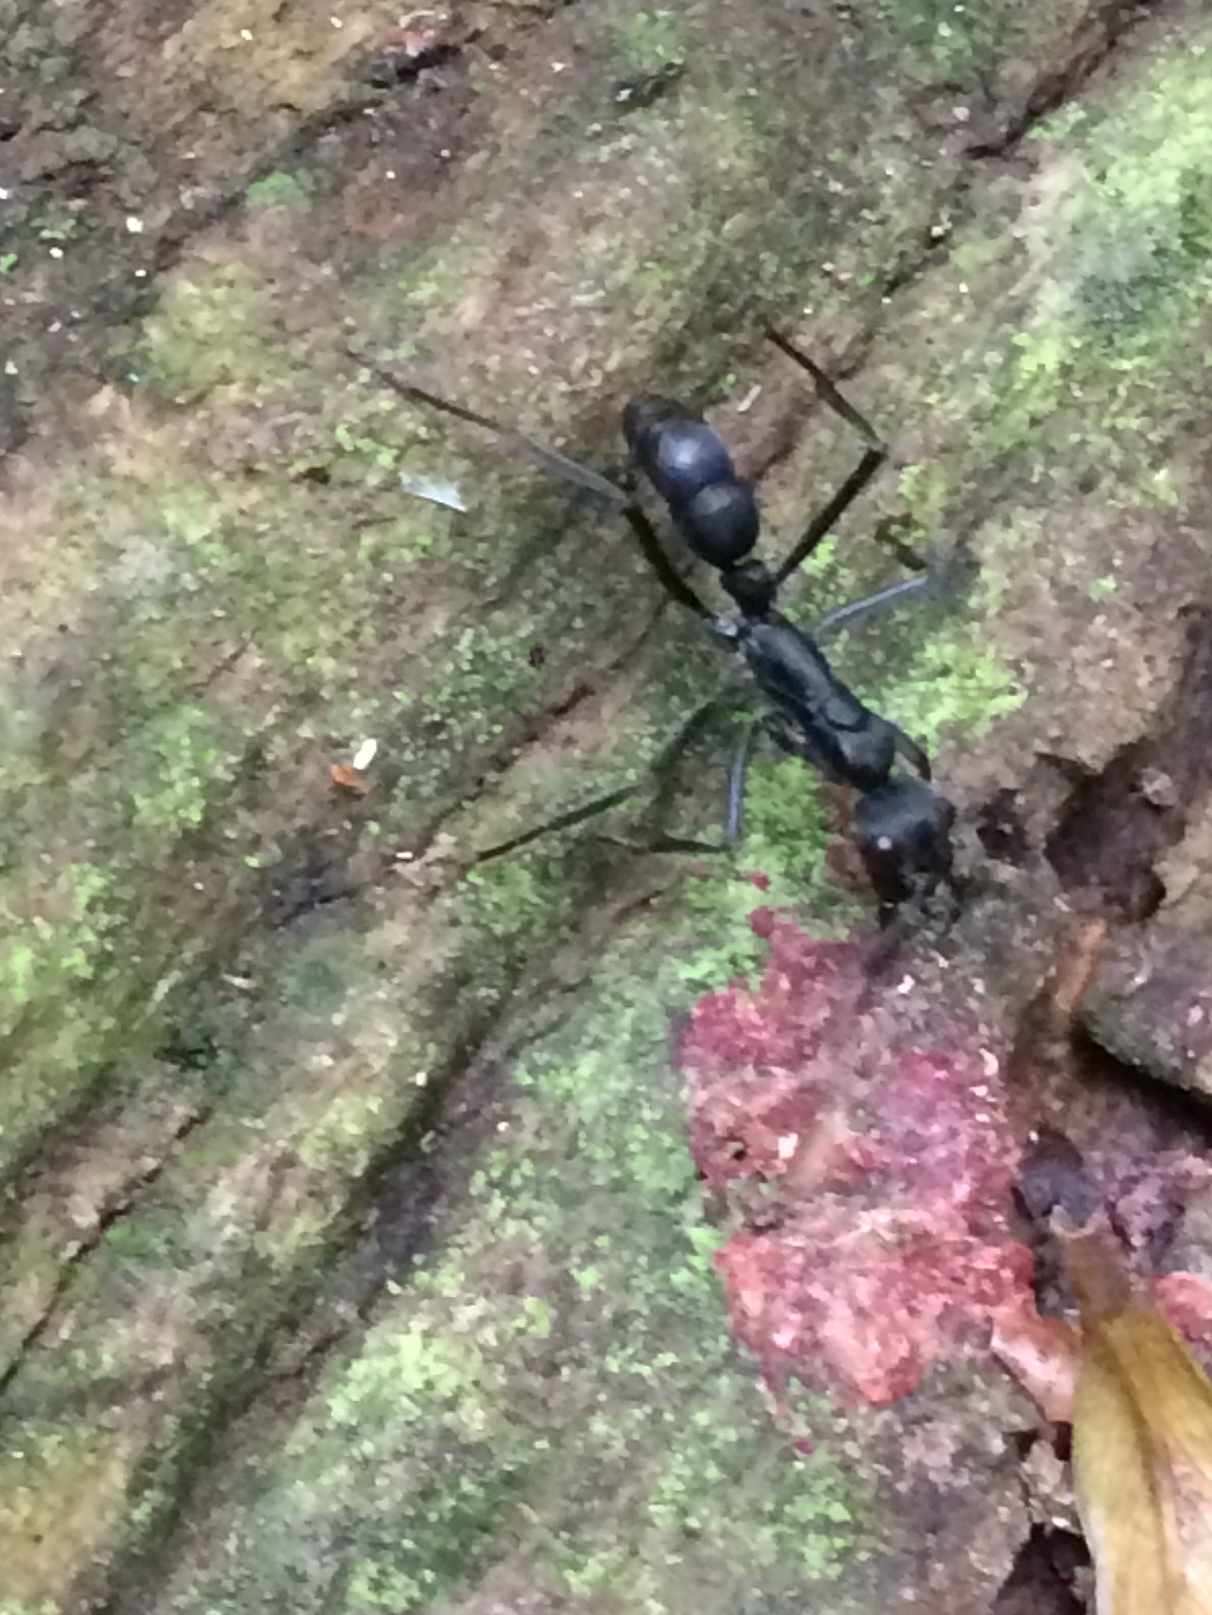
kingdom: Animalia
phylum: Arthropoda
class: Insecta
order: Hymenoptera
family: Formicidae
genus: Pachycondyla
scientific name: Pachycondyla apicalis
